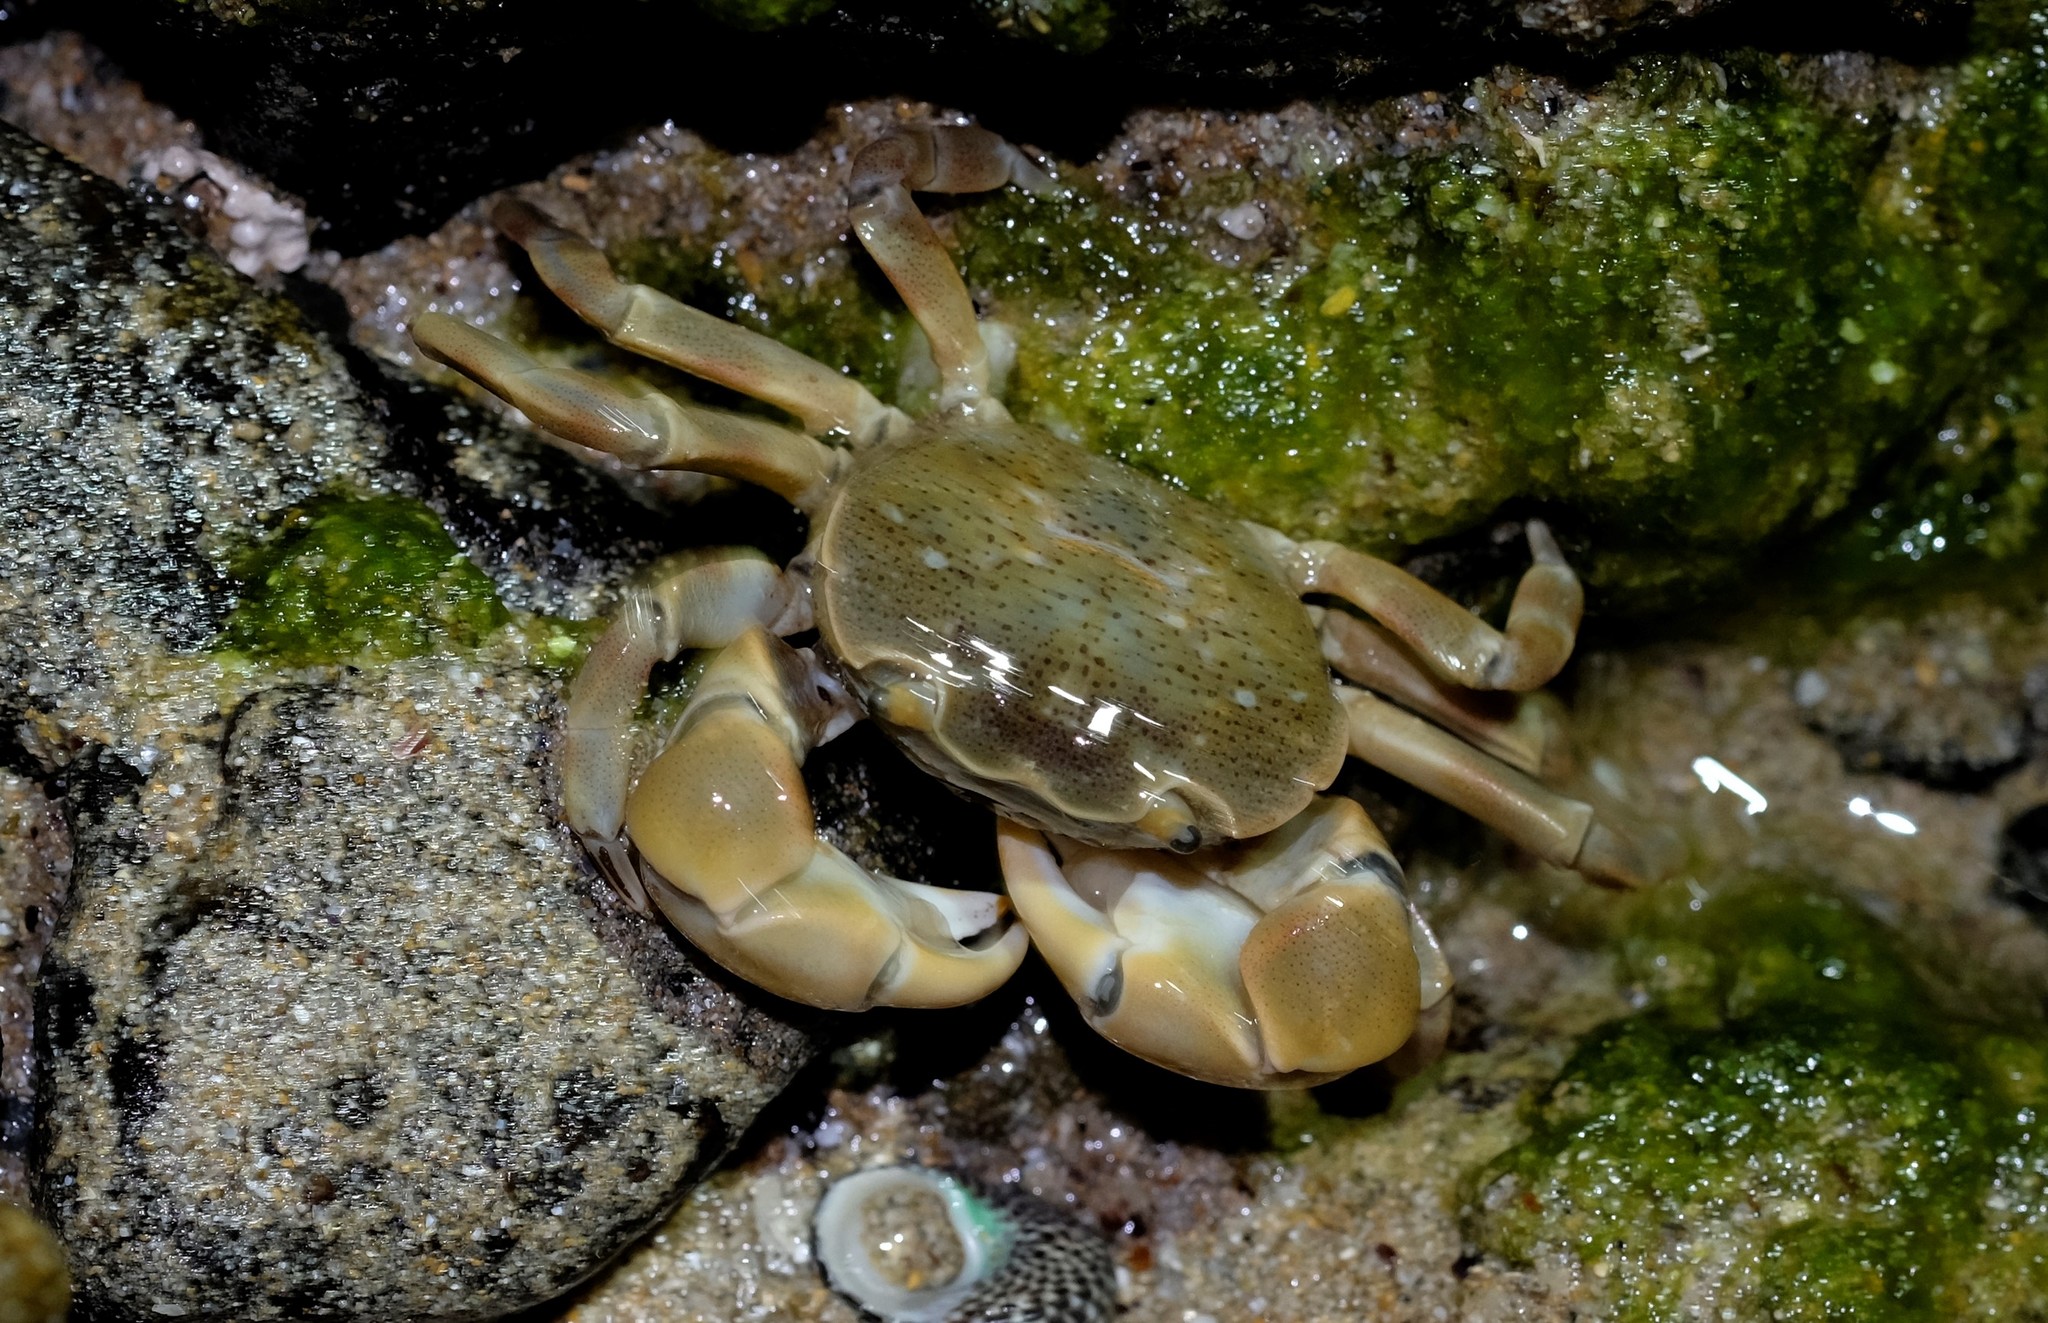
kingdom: Animalia
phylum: Arthropoda
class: Malacostraca
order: Decapoda
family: Varunidae
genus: Paragrapsus
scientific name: Paragrapsus quadridentatus
